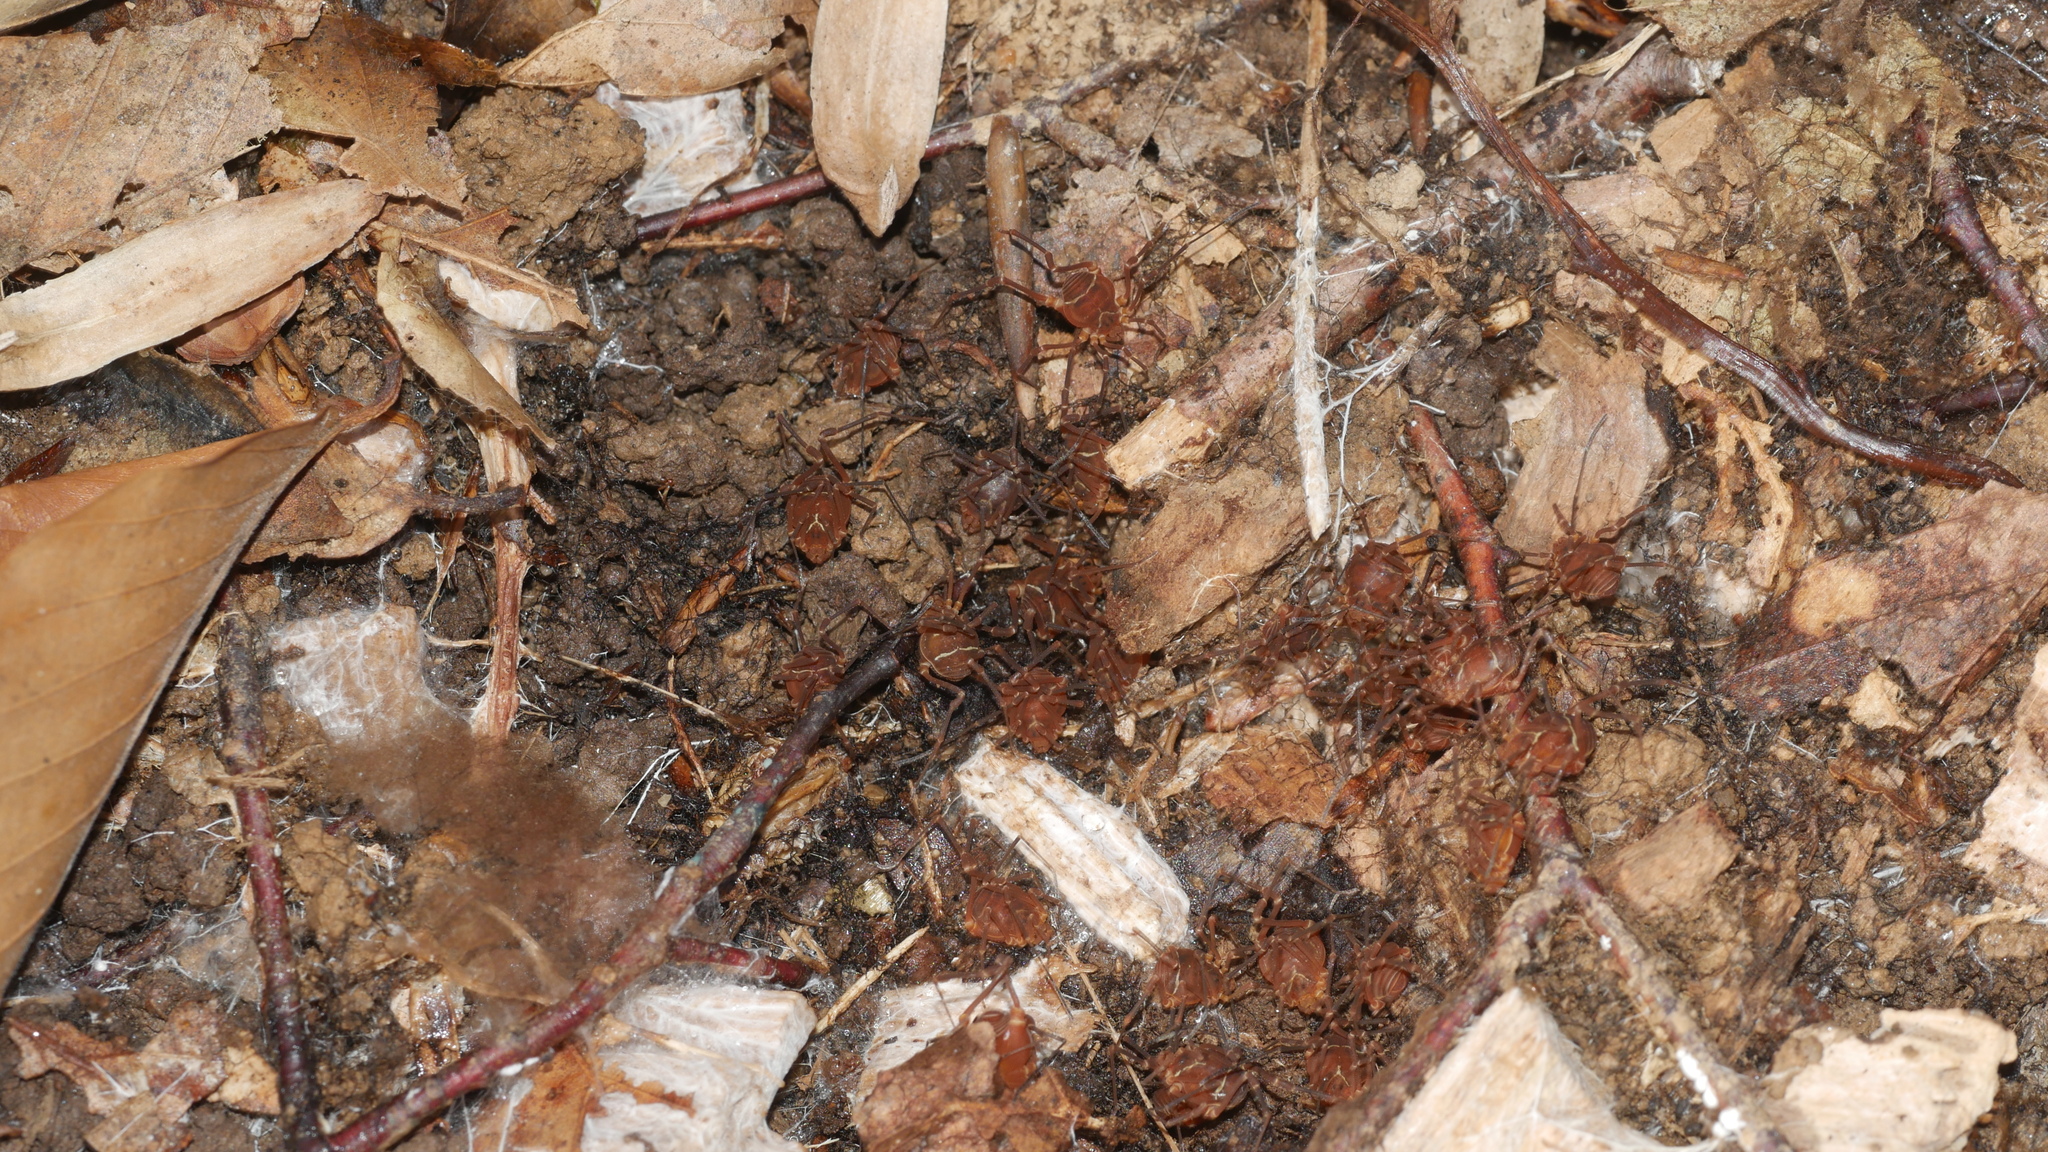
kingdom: Animalia
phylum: Arthropoda
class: Arachnida
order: Opiliones
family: Cosmetidae
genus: Libitioides
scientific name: Libitioides sayi
